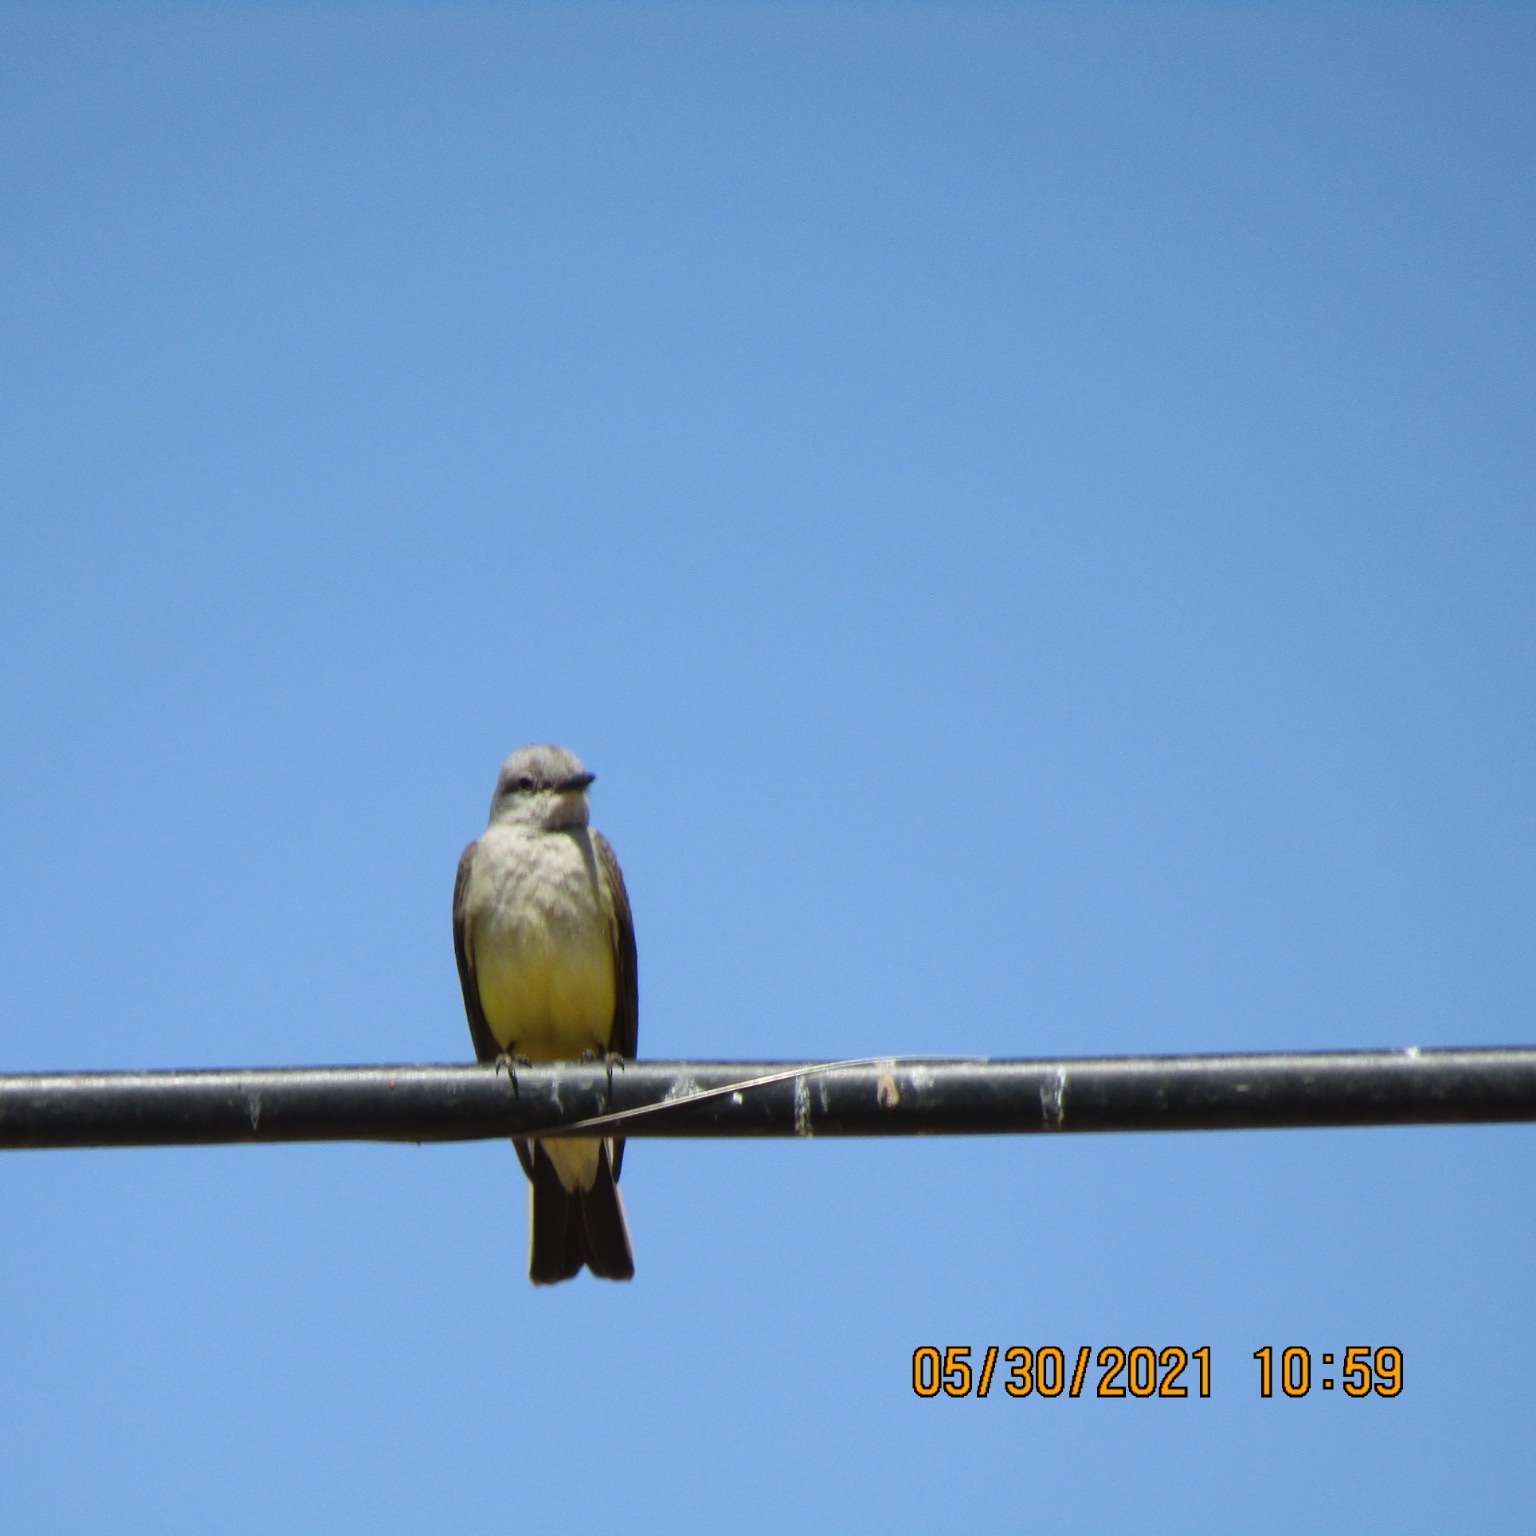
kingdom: Animalia
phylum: Chordata
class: Aves
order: Passeriformes
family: Tyrannidae
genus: Tyrannus
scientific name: Tyrannus verticalis
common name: Western kingbird
